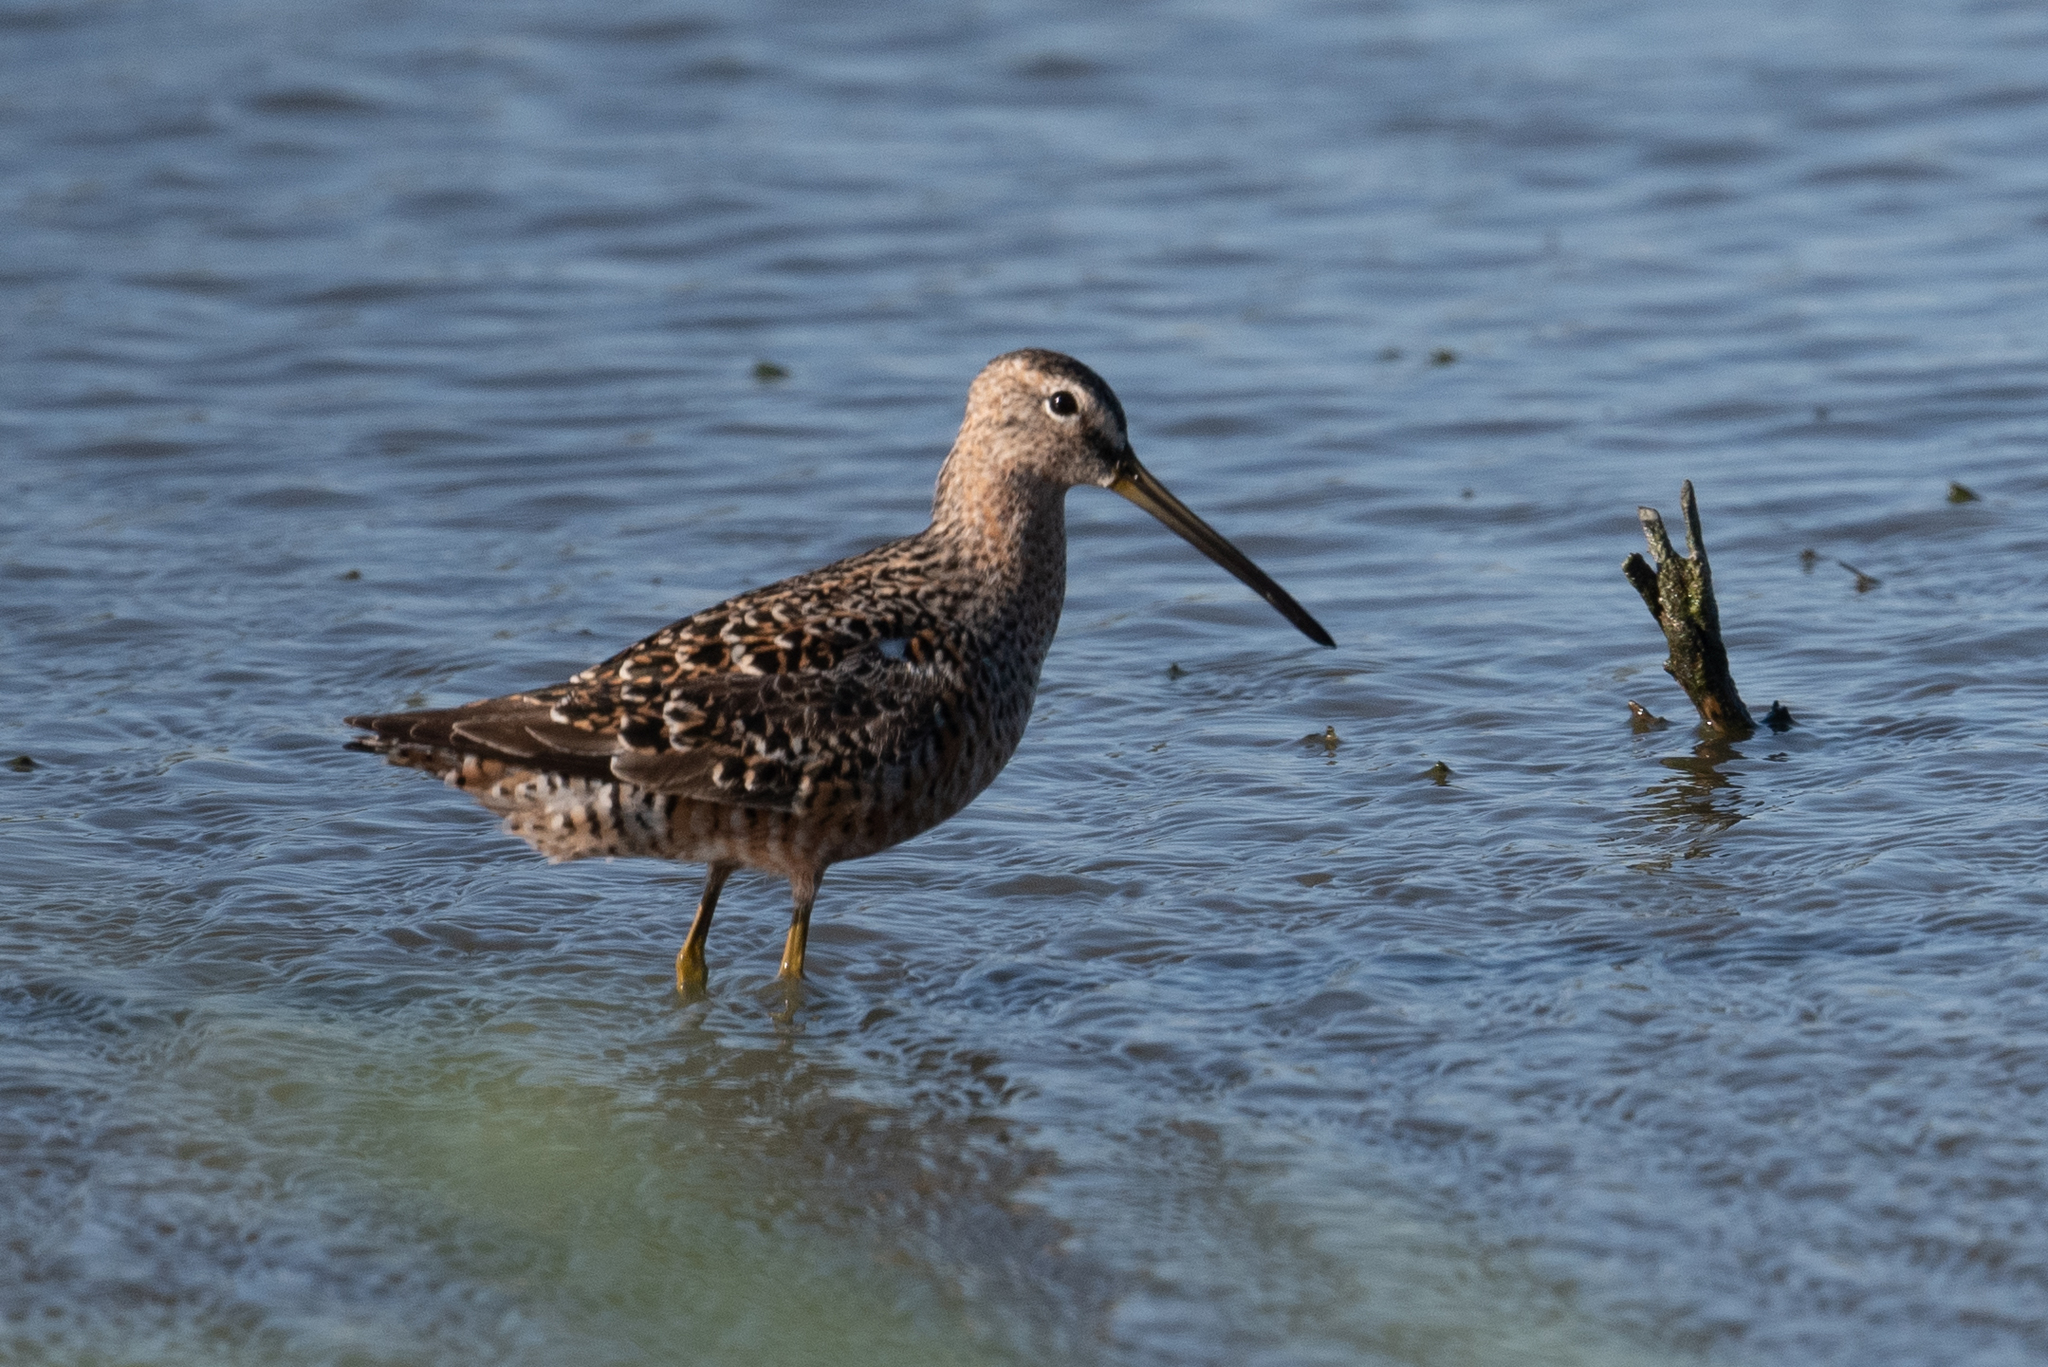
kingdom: Animalia
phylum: Chordata
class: Aves
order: Charadriiformes
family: Scolopacidae
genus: Limnodromus
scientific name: Limnodromus scolopaceus
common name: Long-billed dowitcher
